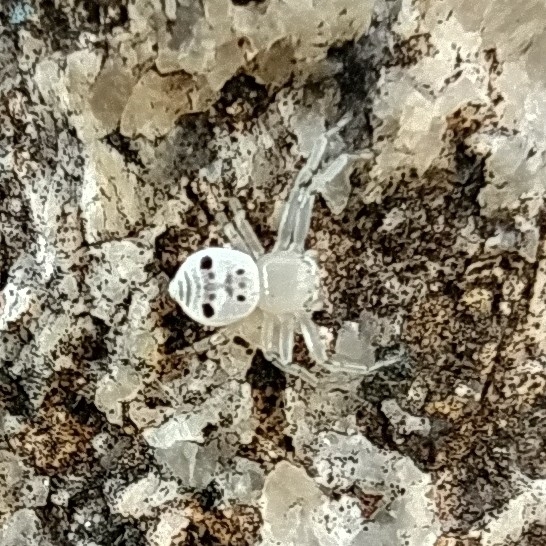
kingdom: Animalia
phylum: Arthropoda
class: Arachnida
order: Araneae
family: Thomisidae
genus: Firmicus
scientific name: Firmicus bragantinus
